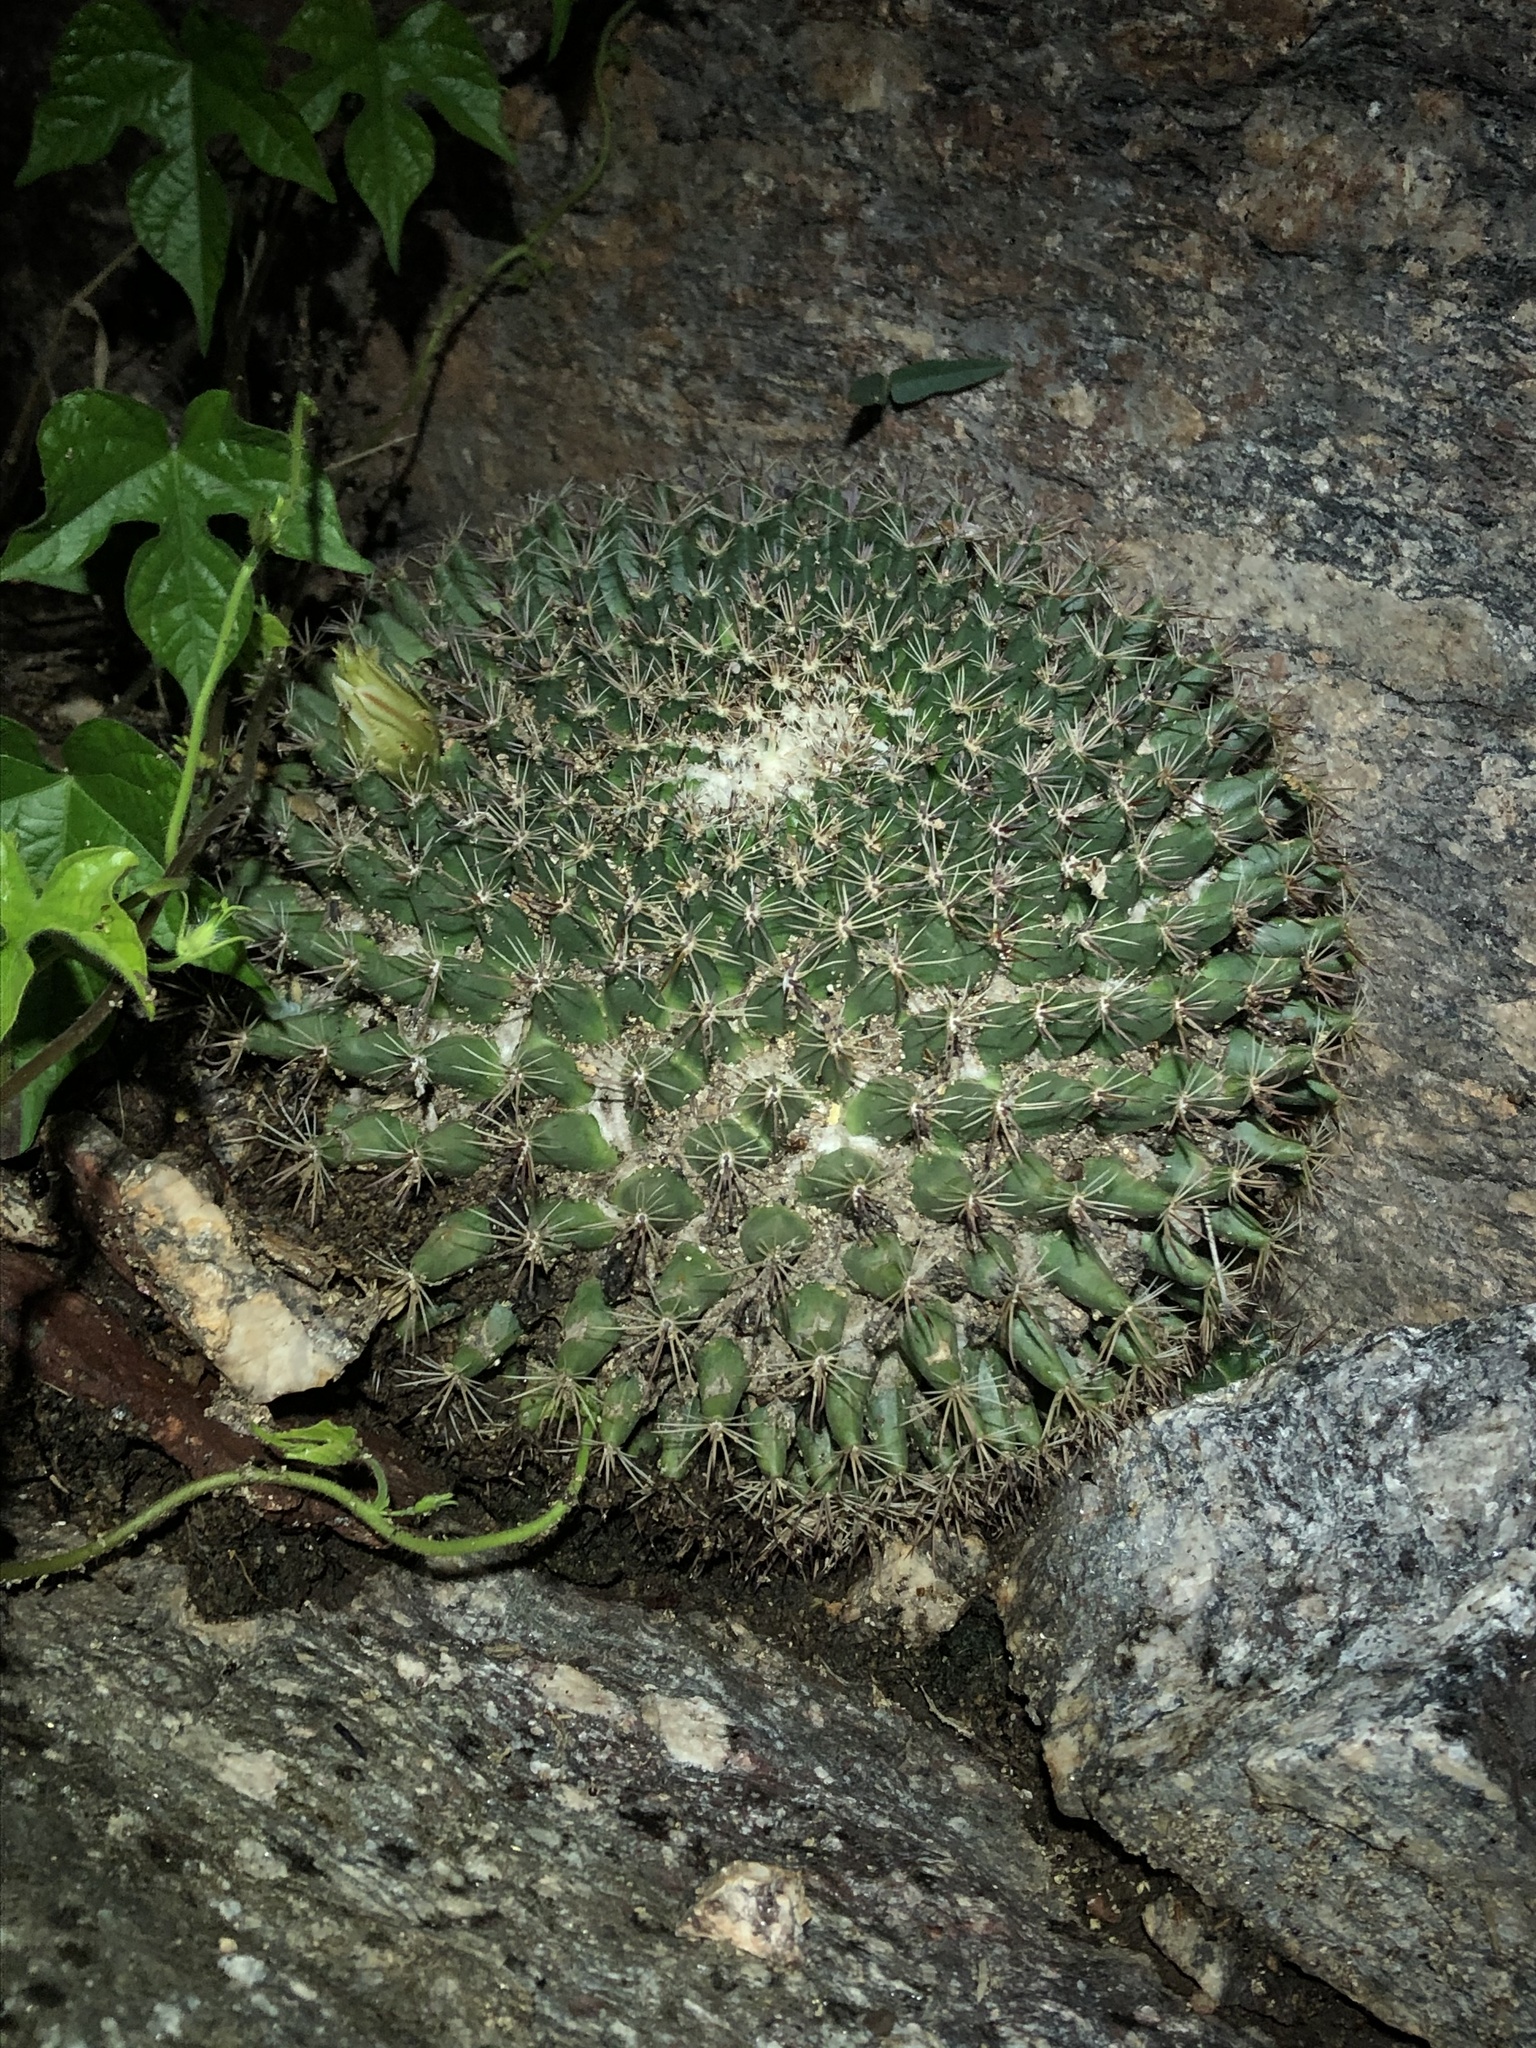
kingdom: Plantae
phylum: Tracheophyta
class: Magnoliopsida
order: Caryophyllales
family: Cactaceae
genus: Mammillaria
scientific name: Mammillaria heyderi
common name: Little nipple cactus
